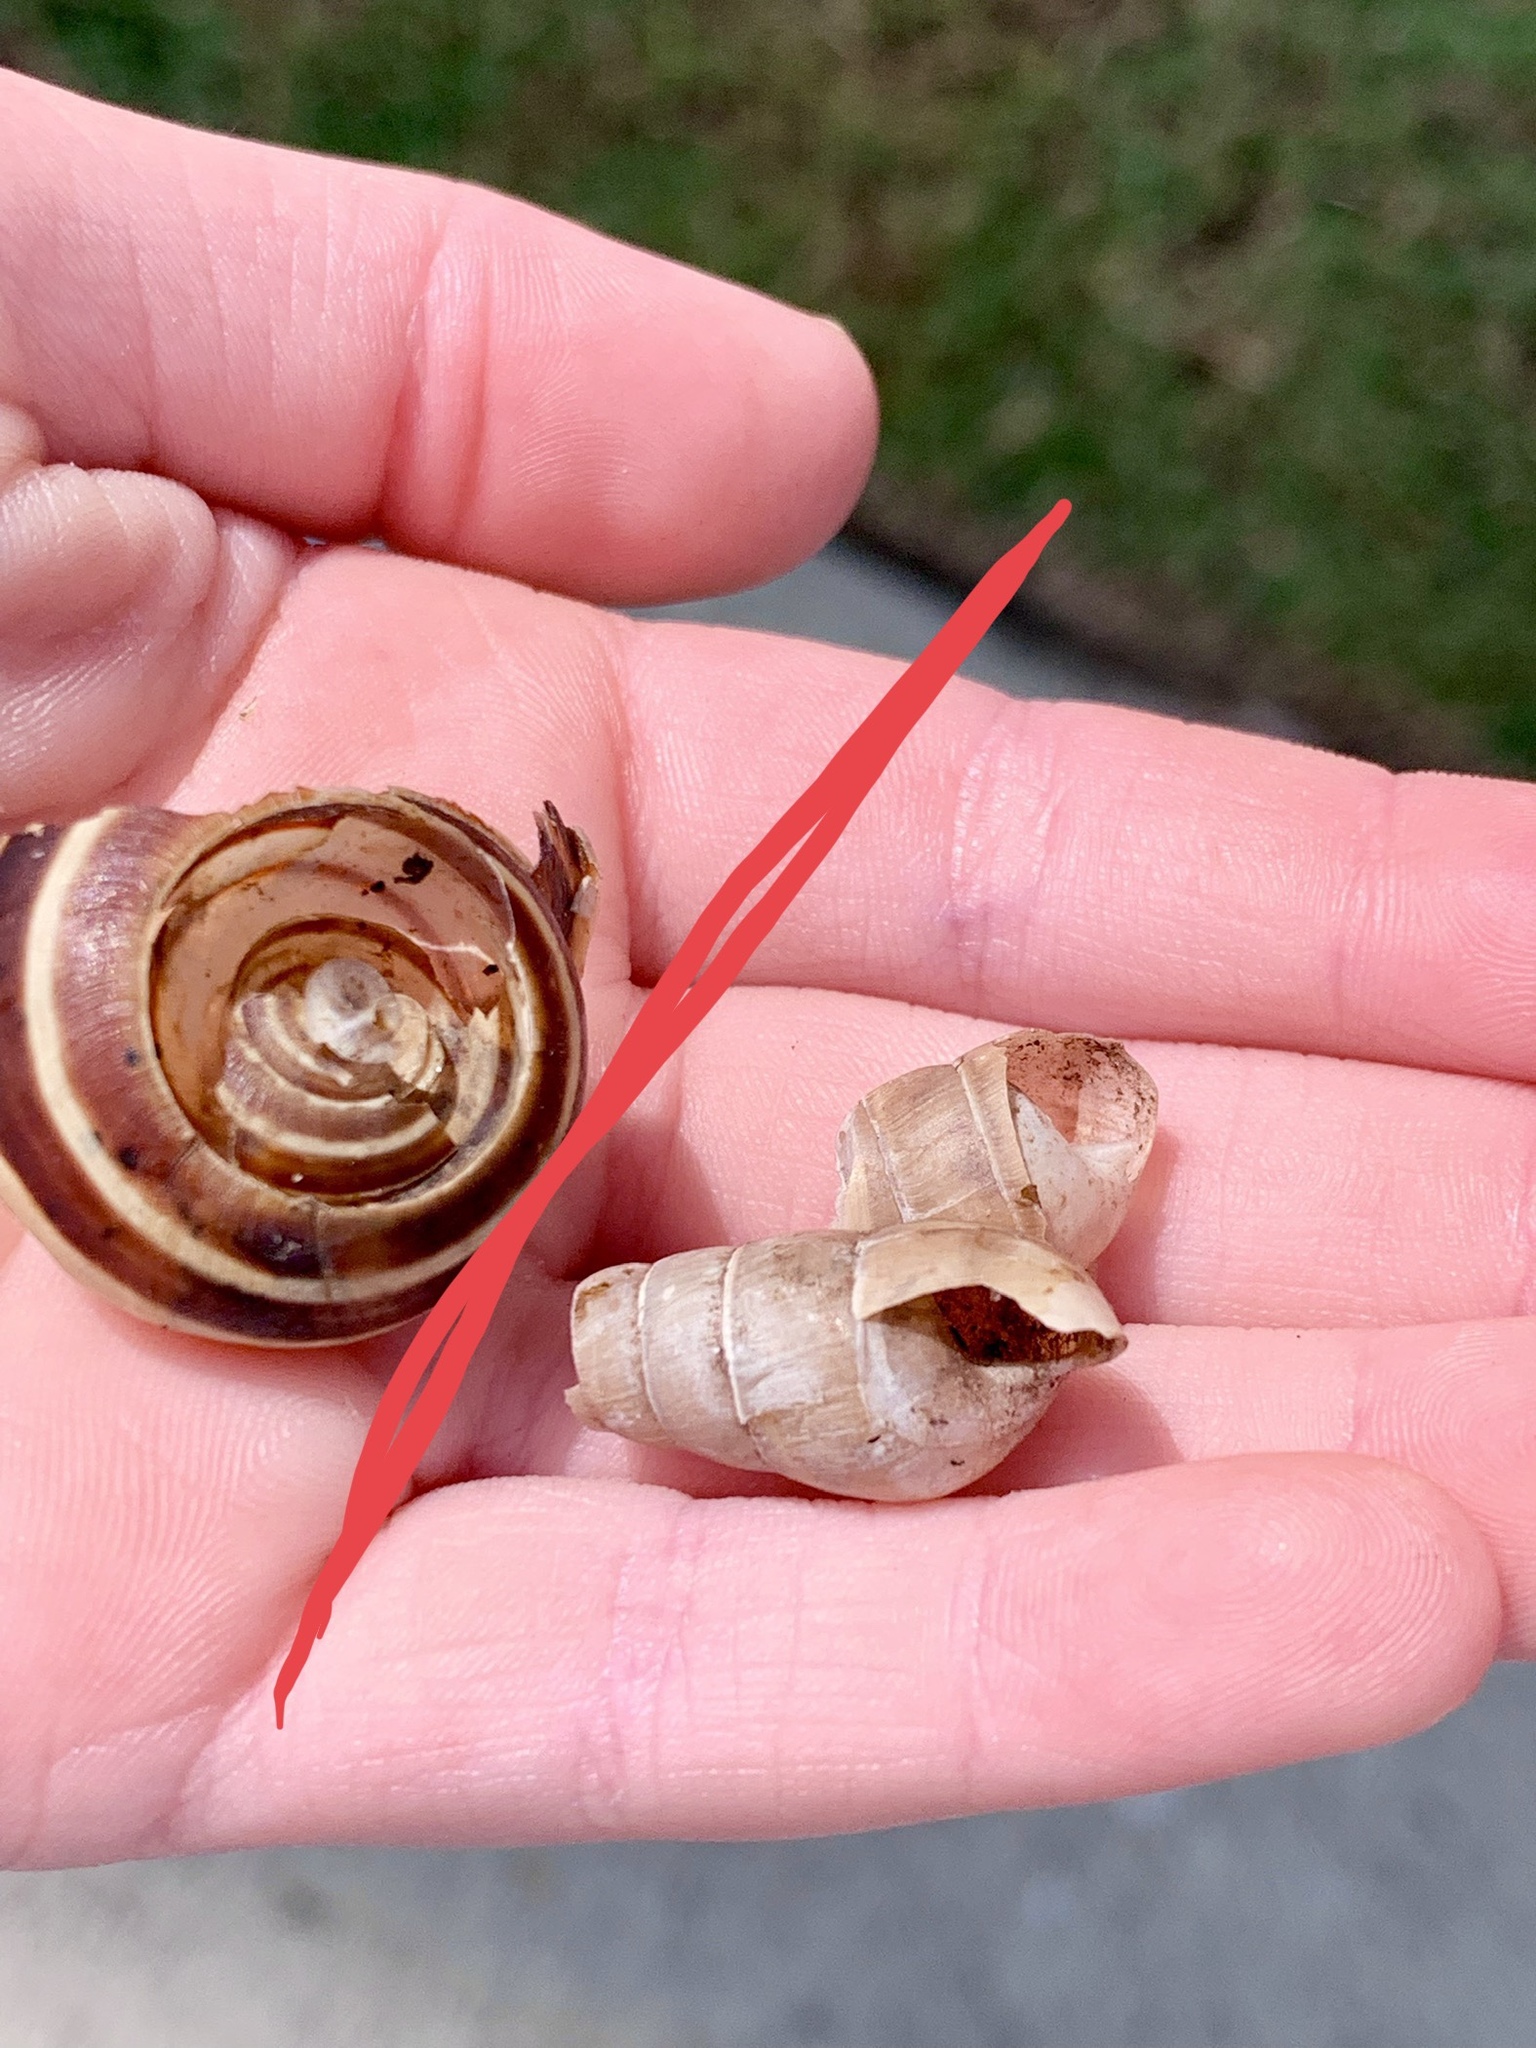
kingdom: Animalia
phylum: Mollusca
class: Gastropoda
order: Stylommatophora
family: Helicidae
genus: Eobania
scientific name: Eobania vermiculata
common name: Chocolateband snail
